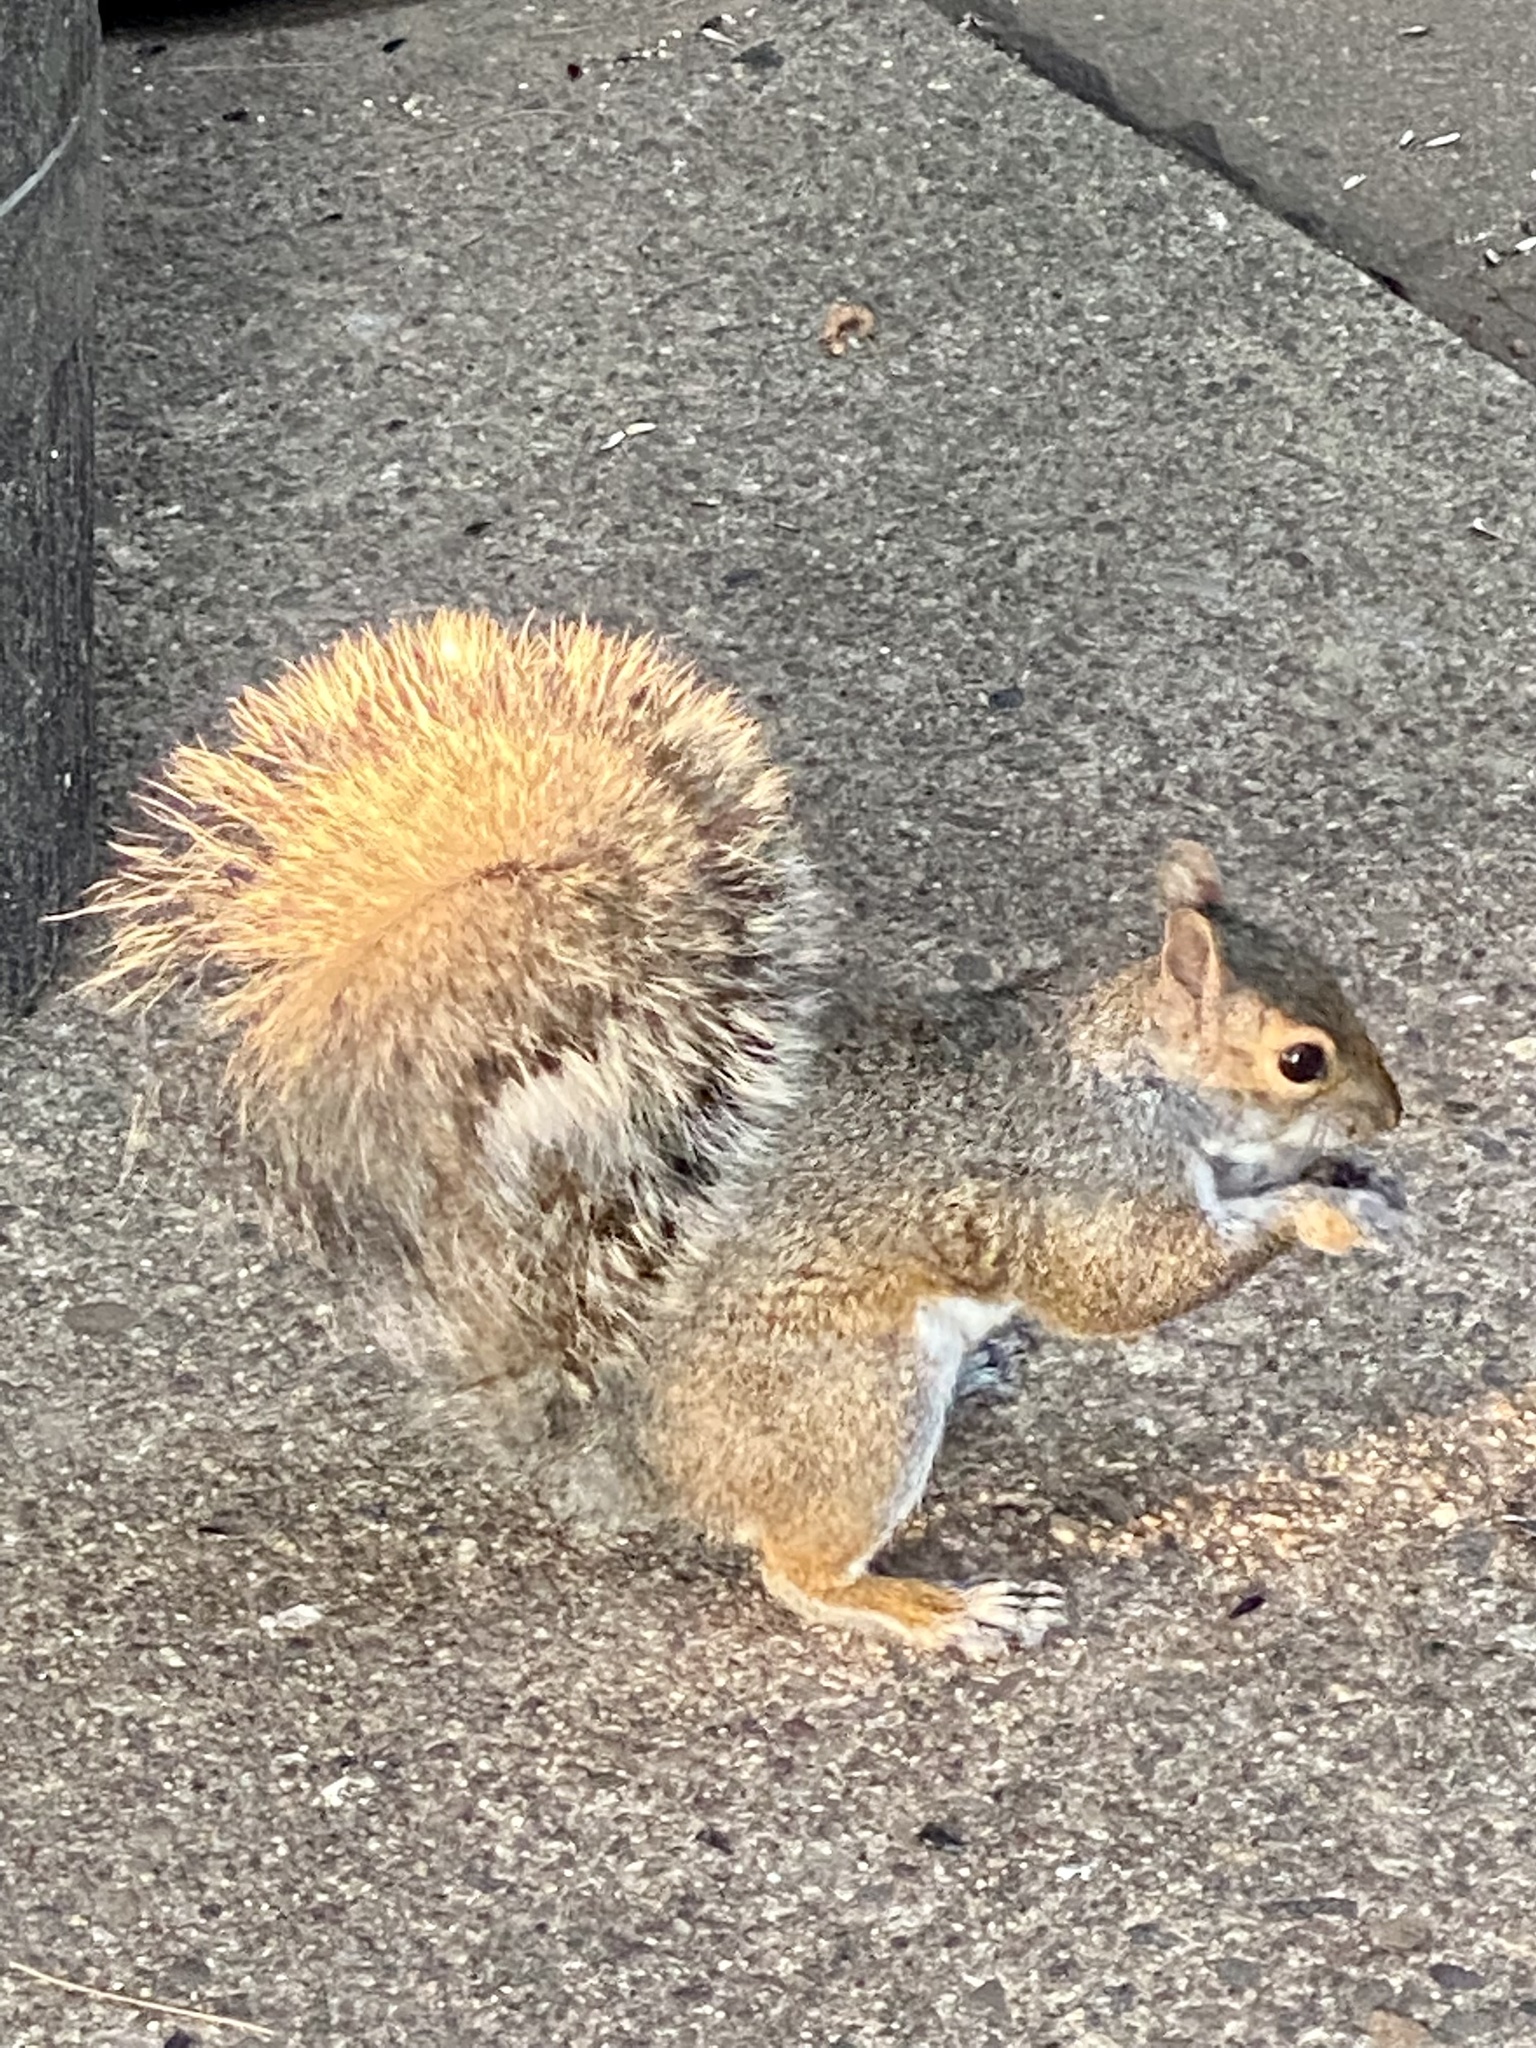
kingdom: Animalia
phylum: Chordata
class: Mammalia
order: Rodentia
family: Sciuridae
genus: Sciurus
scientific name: Sciurus carolinensis
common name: Eastern gray squirrel
